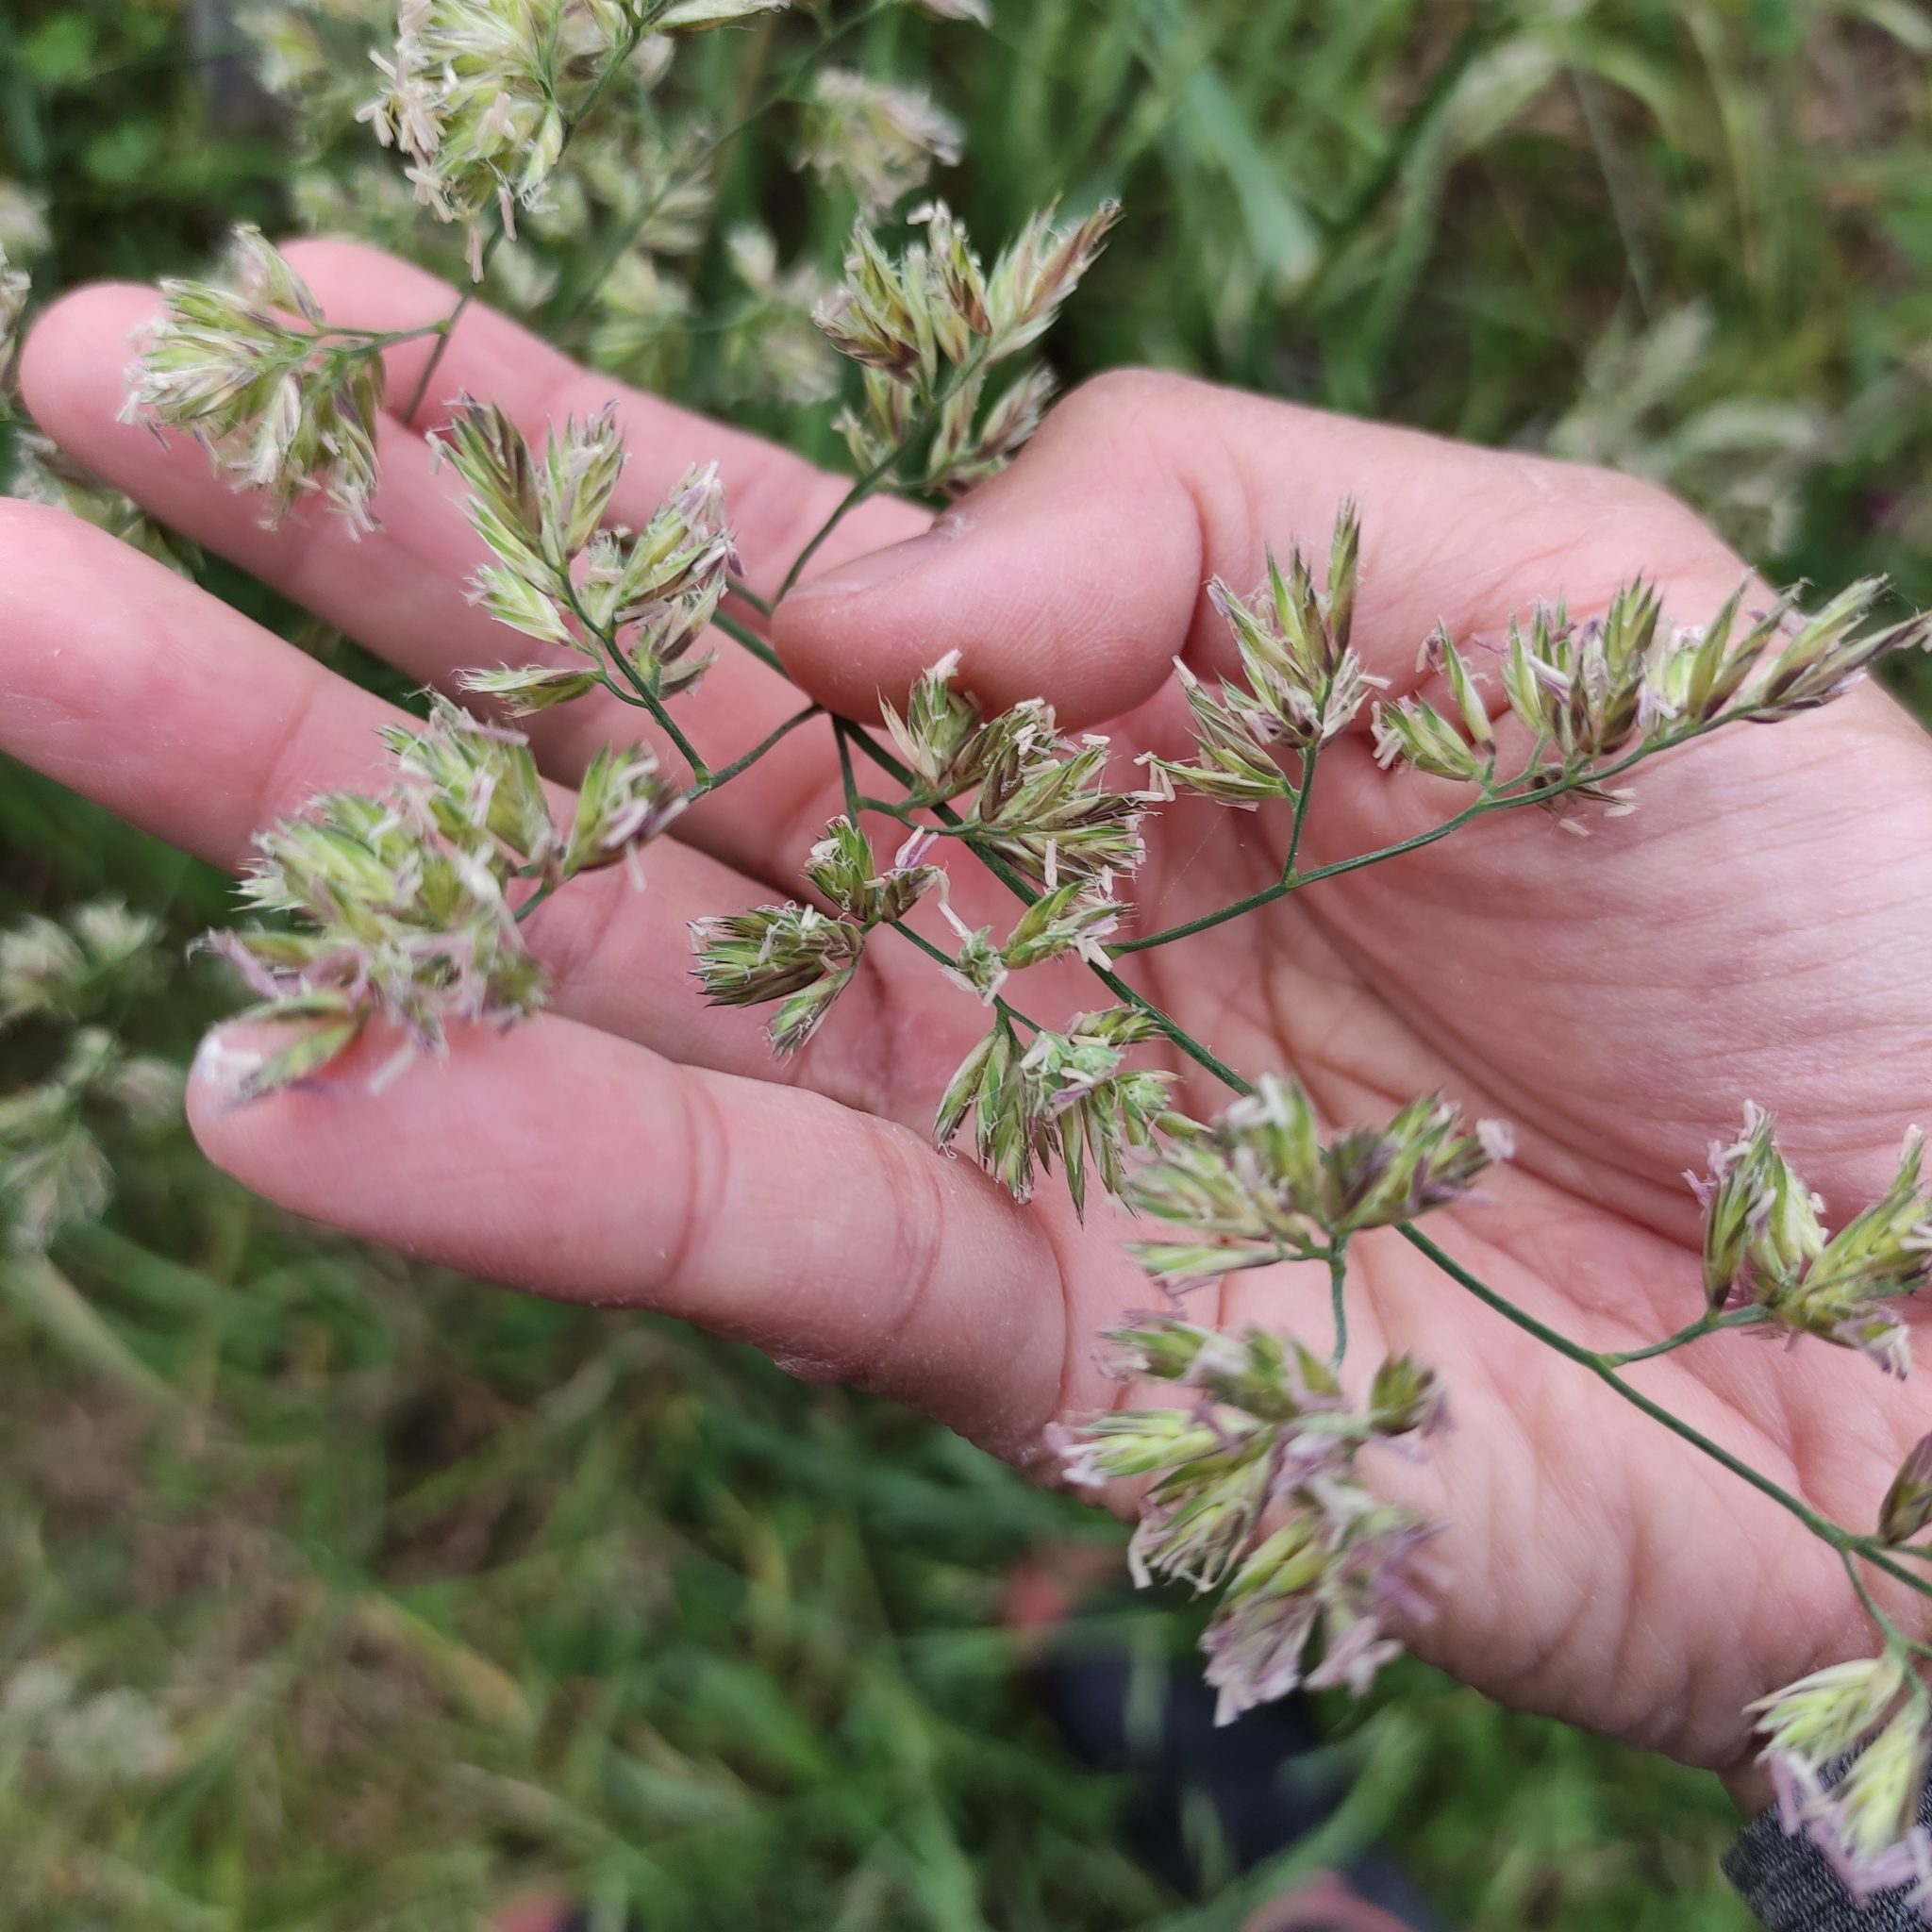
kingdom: Plantae
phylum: Tracheophyta
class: Liliopsida
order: Poales
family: Poaceae
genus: Dactylis
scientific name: Dactylis glomerata
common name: Orchardgrass
